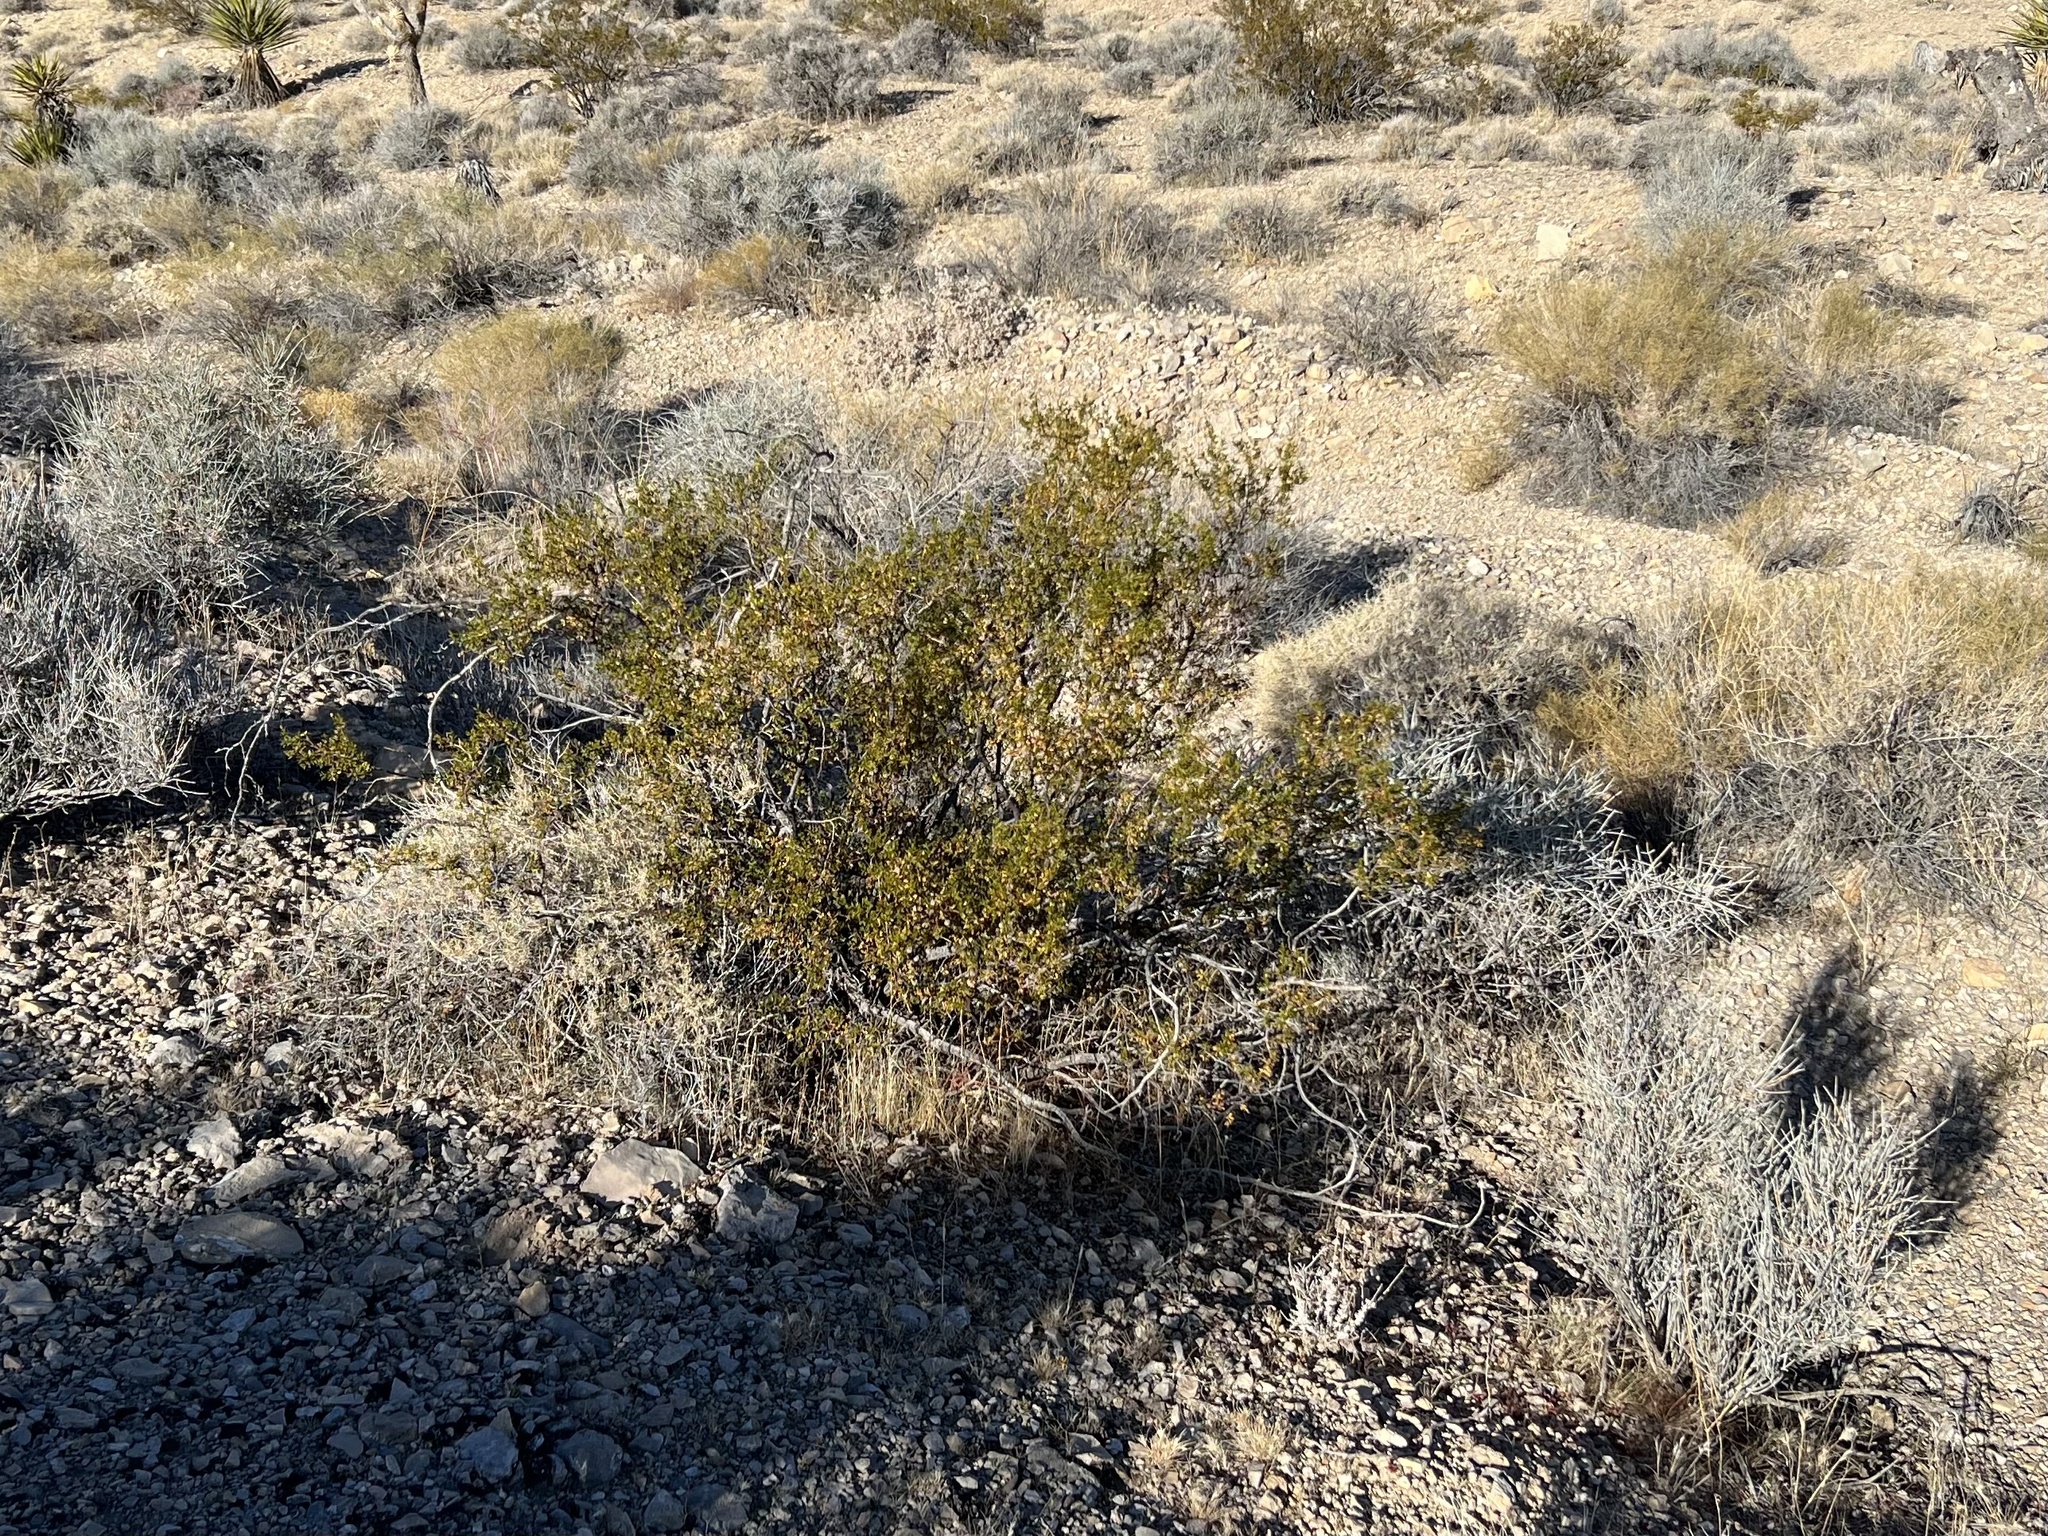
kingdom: Plantae
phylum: Tracheophyta
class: Magnoliopsida
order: Zygophyllales
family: Zygophyllaceae
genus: Larrea
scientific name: Larrea tridentata
